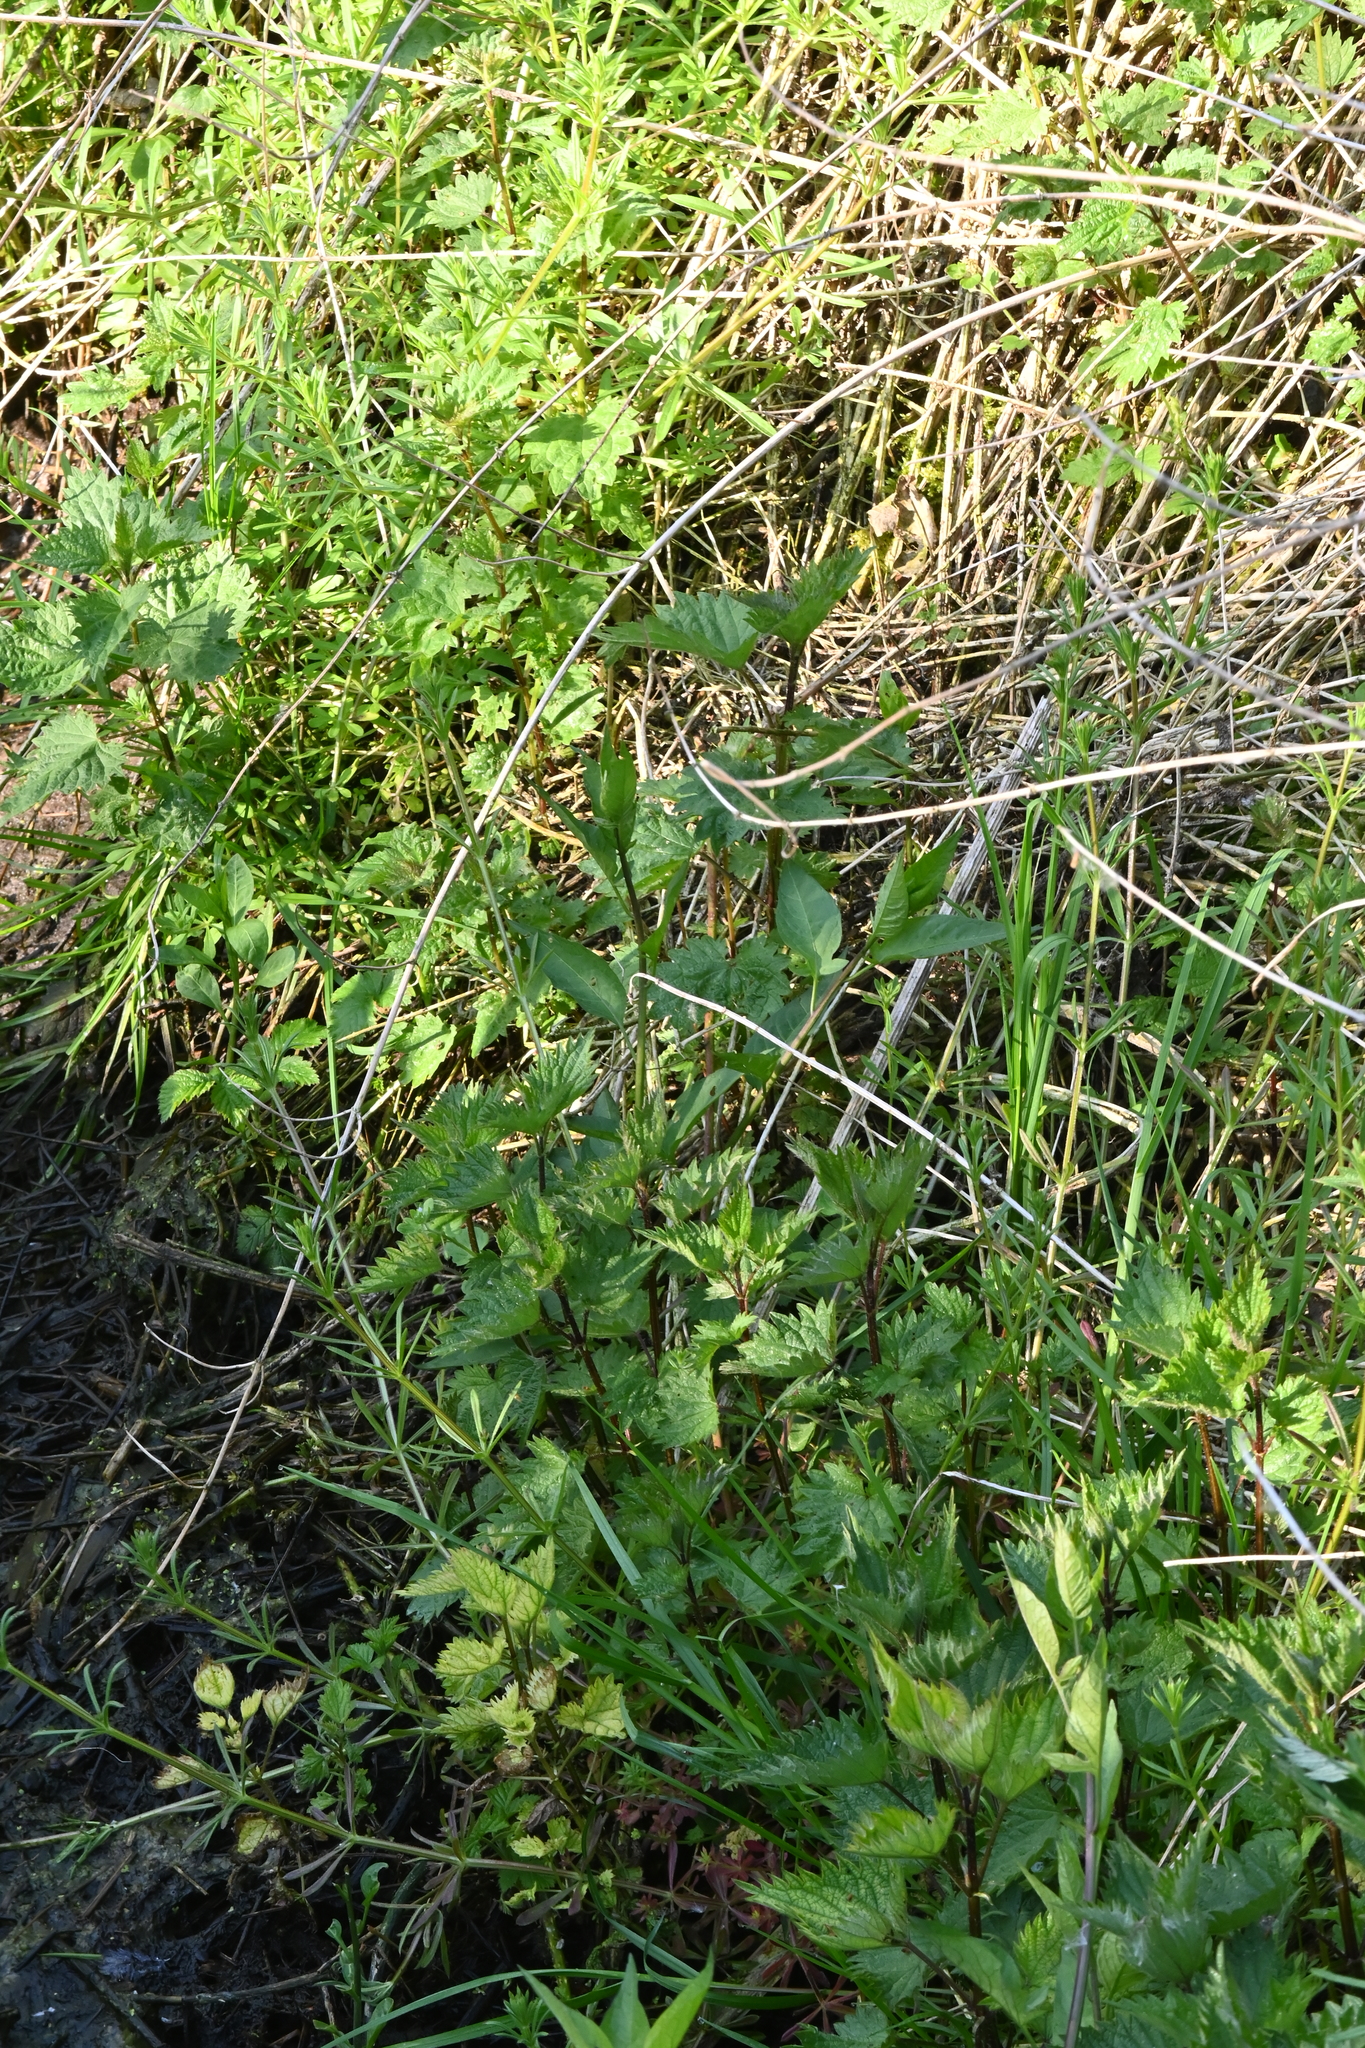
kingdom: Plantae
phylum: Tracheophyta
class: Magnoliopsida
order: Solanales
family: Solanaceae
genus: Solanum
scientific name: Solanum dulcamara
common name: Climbing nightshade
